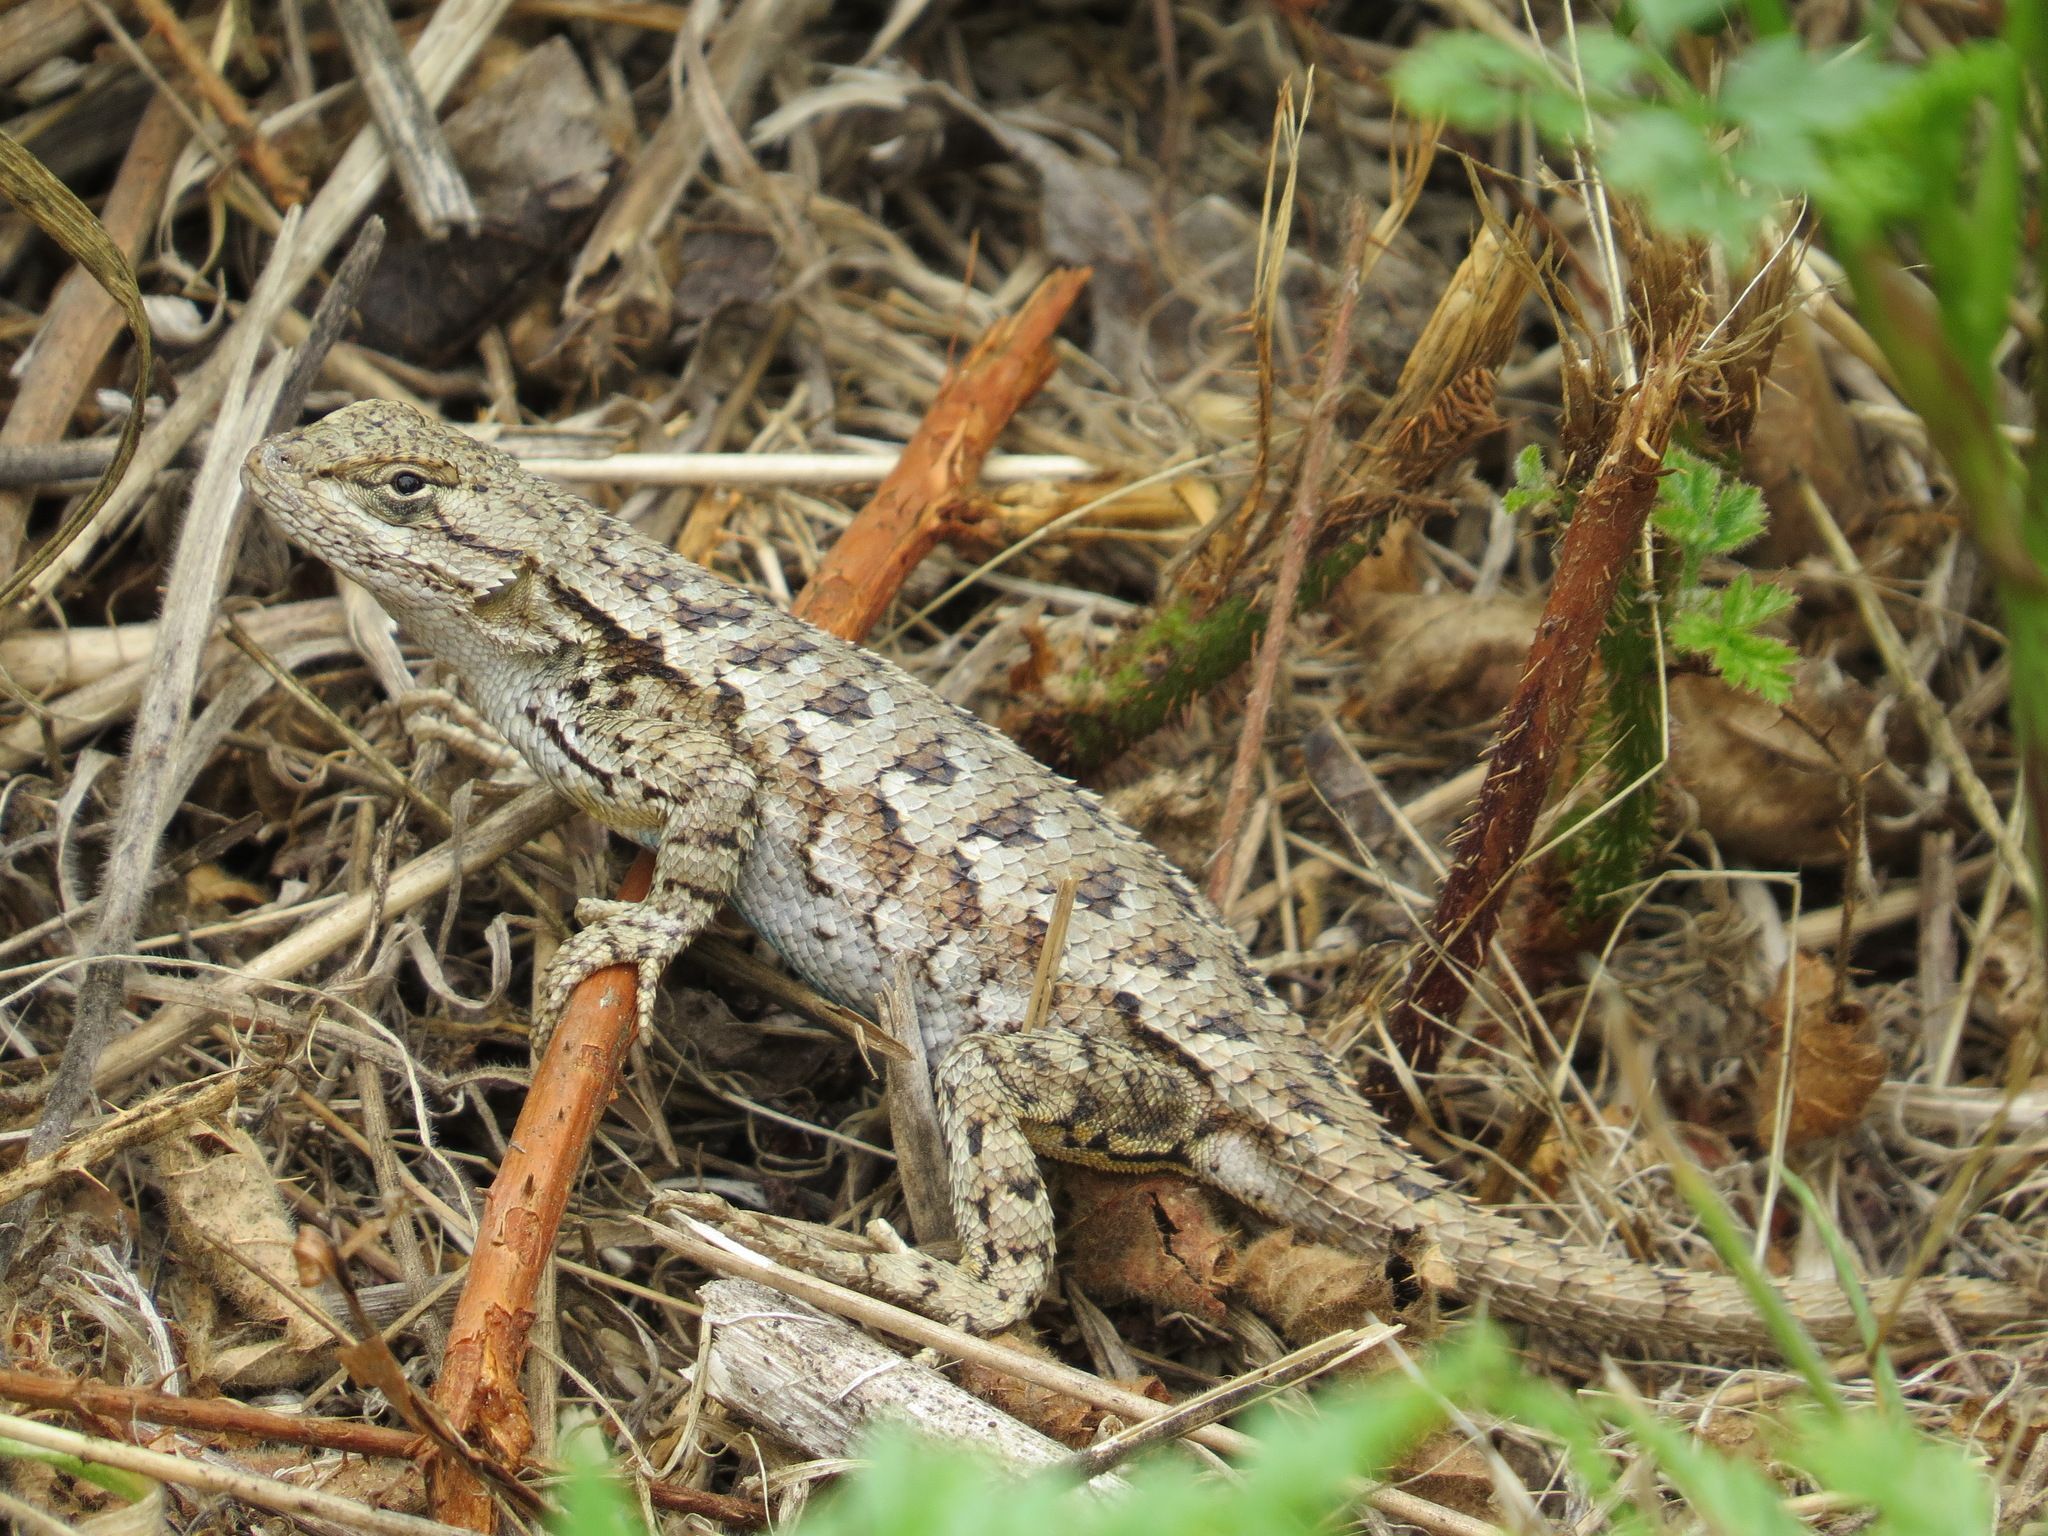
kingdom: Animalia
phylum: Chordata
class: Squamata
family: Phrynosomatidae
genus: Sceloporus
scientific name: Sceloporus occidentalis
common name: Western fence lizard
